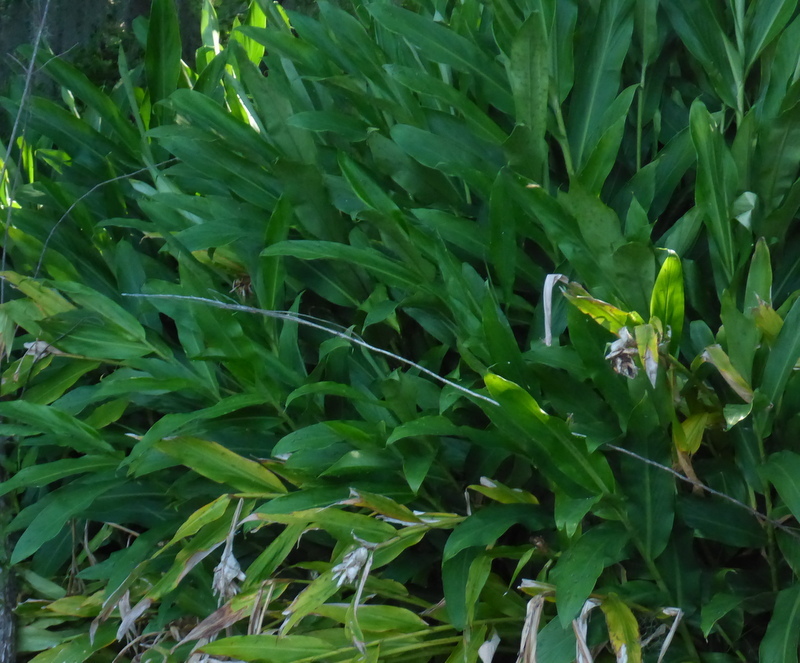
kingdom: Plantae
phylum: Tracheophyta
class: Liliopsida
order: Zingiberales
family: Zingiberaceae
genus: Hedychium
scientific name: Hedychium coronarium
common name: White garland-lily
